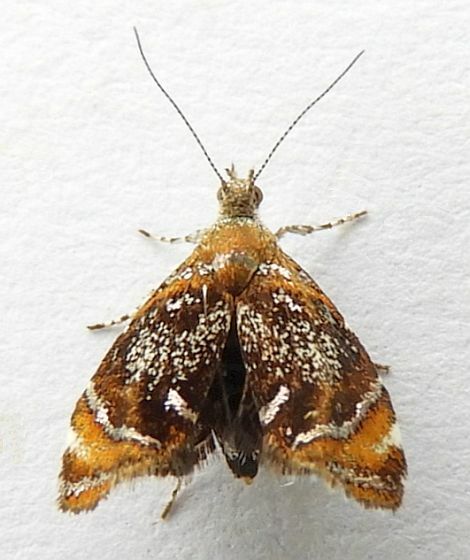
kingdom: Animalia
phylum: Arthropoda
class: Insecta
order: Lepidoptera
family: Choreutidae
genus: Prochoreutis
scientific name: Prochoreutis inflatella
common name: Skullcap skeletonizer moth
